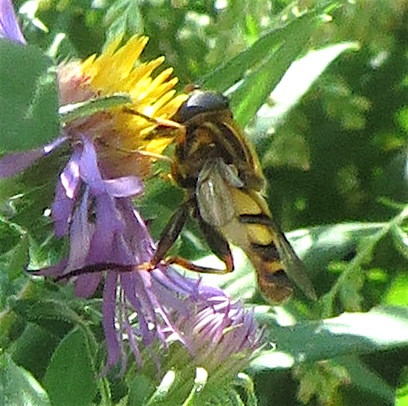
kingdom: Animalia
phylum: Arthropoda
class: Insecta
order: Diptera
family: Syrphidae
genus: Helophilus
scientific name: Helophilus fasciatus
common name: Narrow-headed marsh fly
